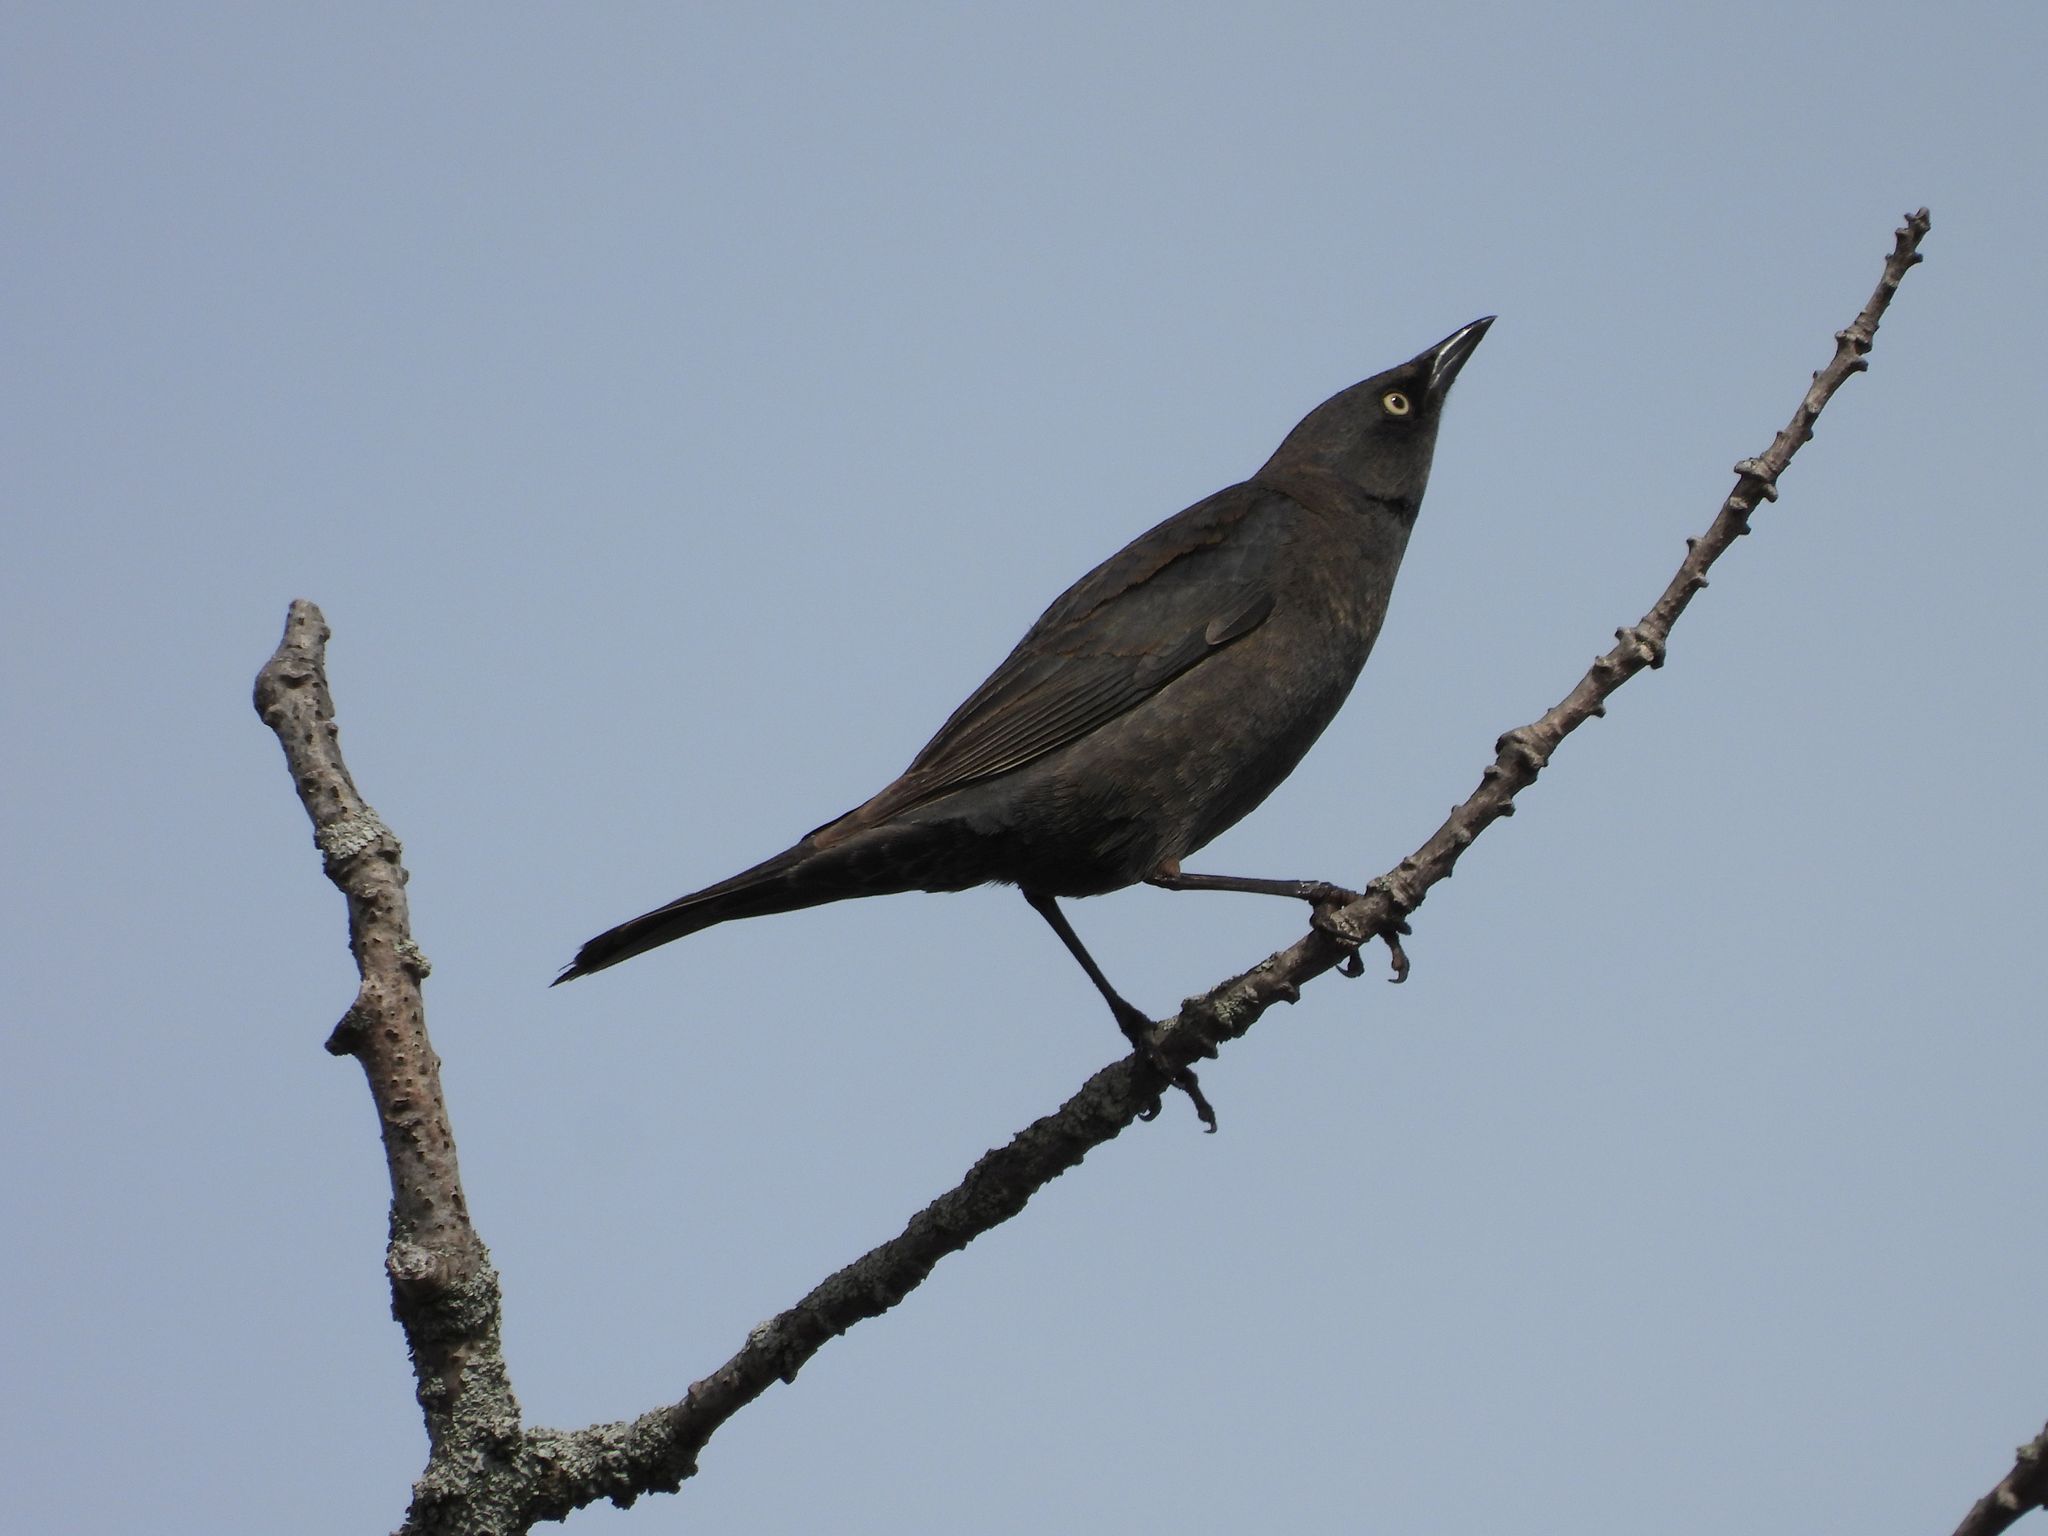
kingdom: Animalia
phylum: Chordata
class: Aves
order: Passeriformes
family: Icteridae
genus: Euphagus
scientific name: Euphagus carolinus
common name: Rusty blackbird
